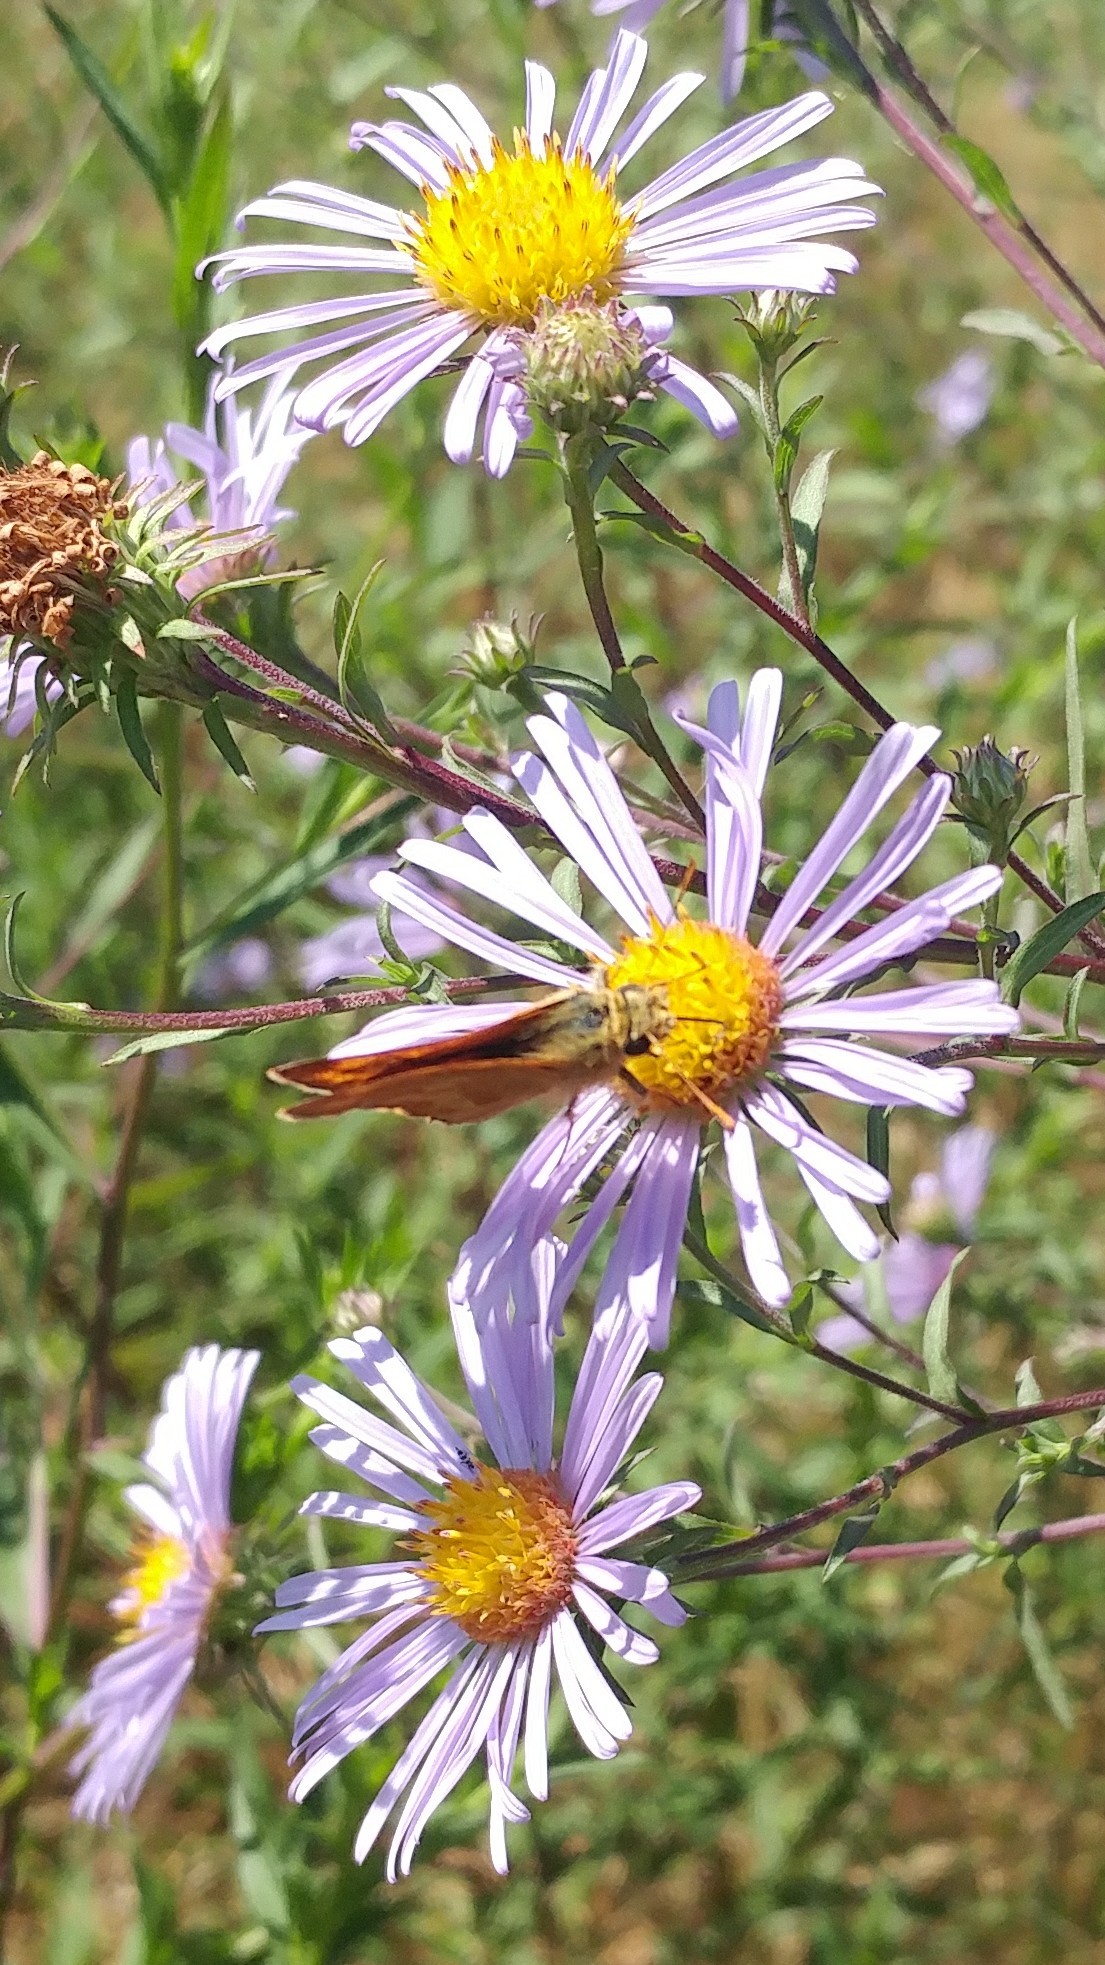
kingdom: Animalia
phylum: Arthropoda
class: Insecta
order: Lepidoptera
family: Hesperiidae
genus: Ochlodes
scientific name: Ochlodes sylvanoides
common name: Woodland skipper
